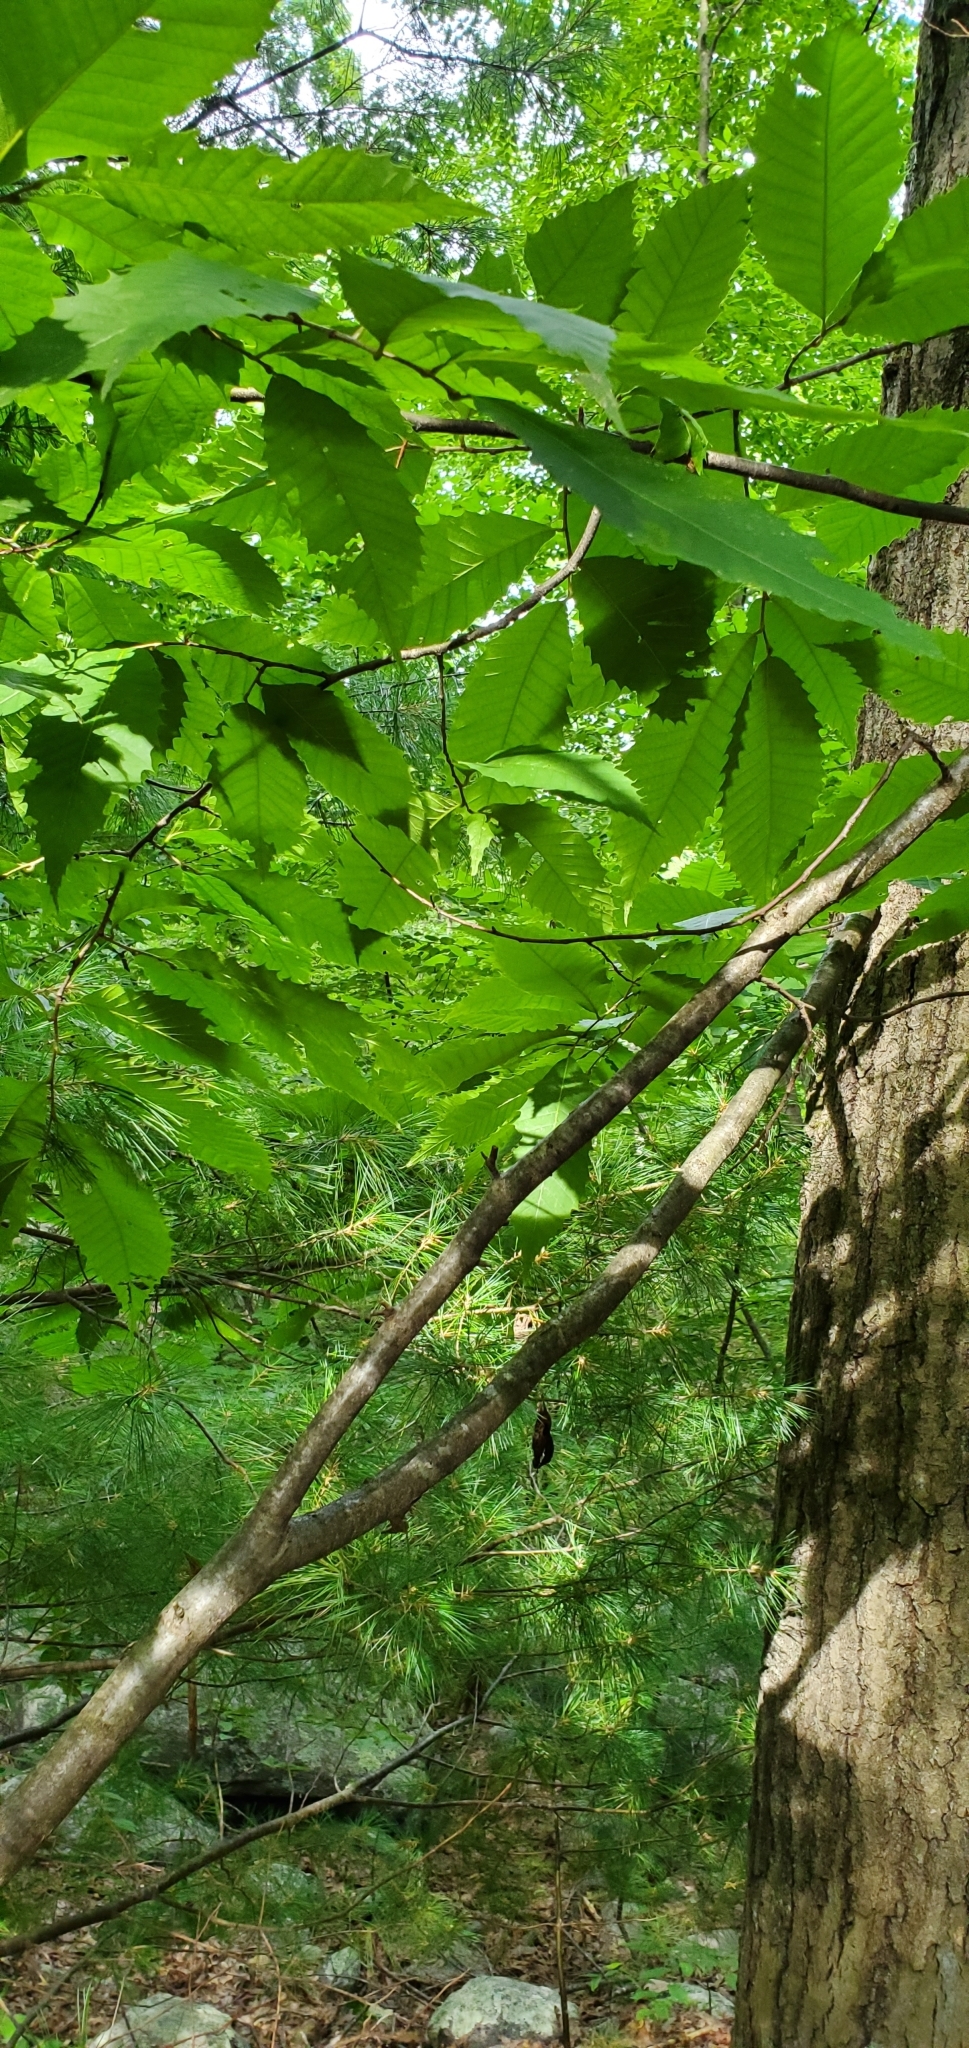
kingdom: Plantae
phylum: Tracheophyta
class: Magnoliopsida
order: Fagales
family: Fagaceae
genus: Castanea
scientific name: Castanea dentata
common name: American chestnut
